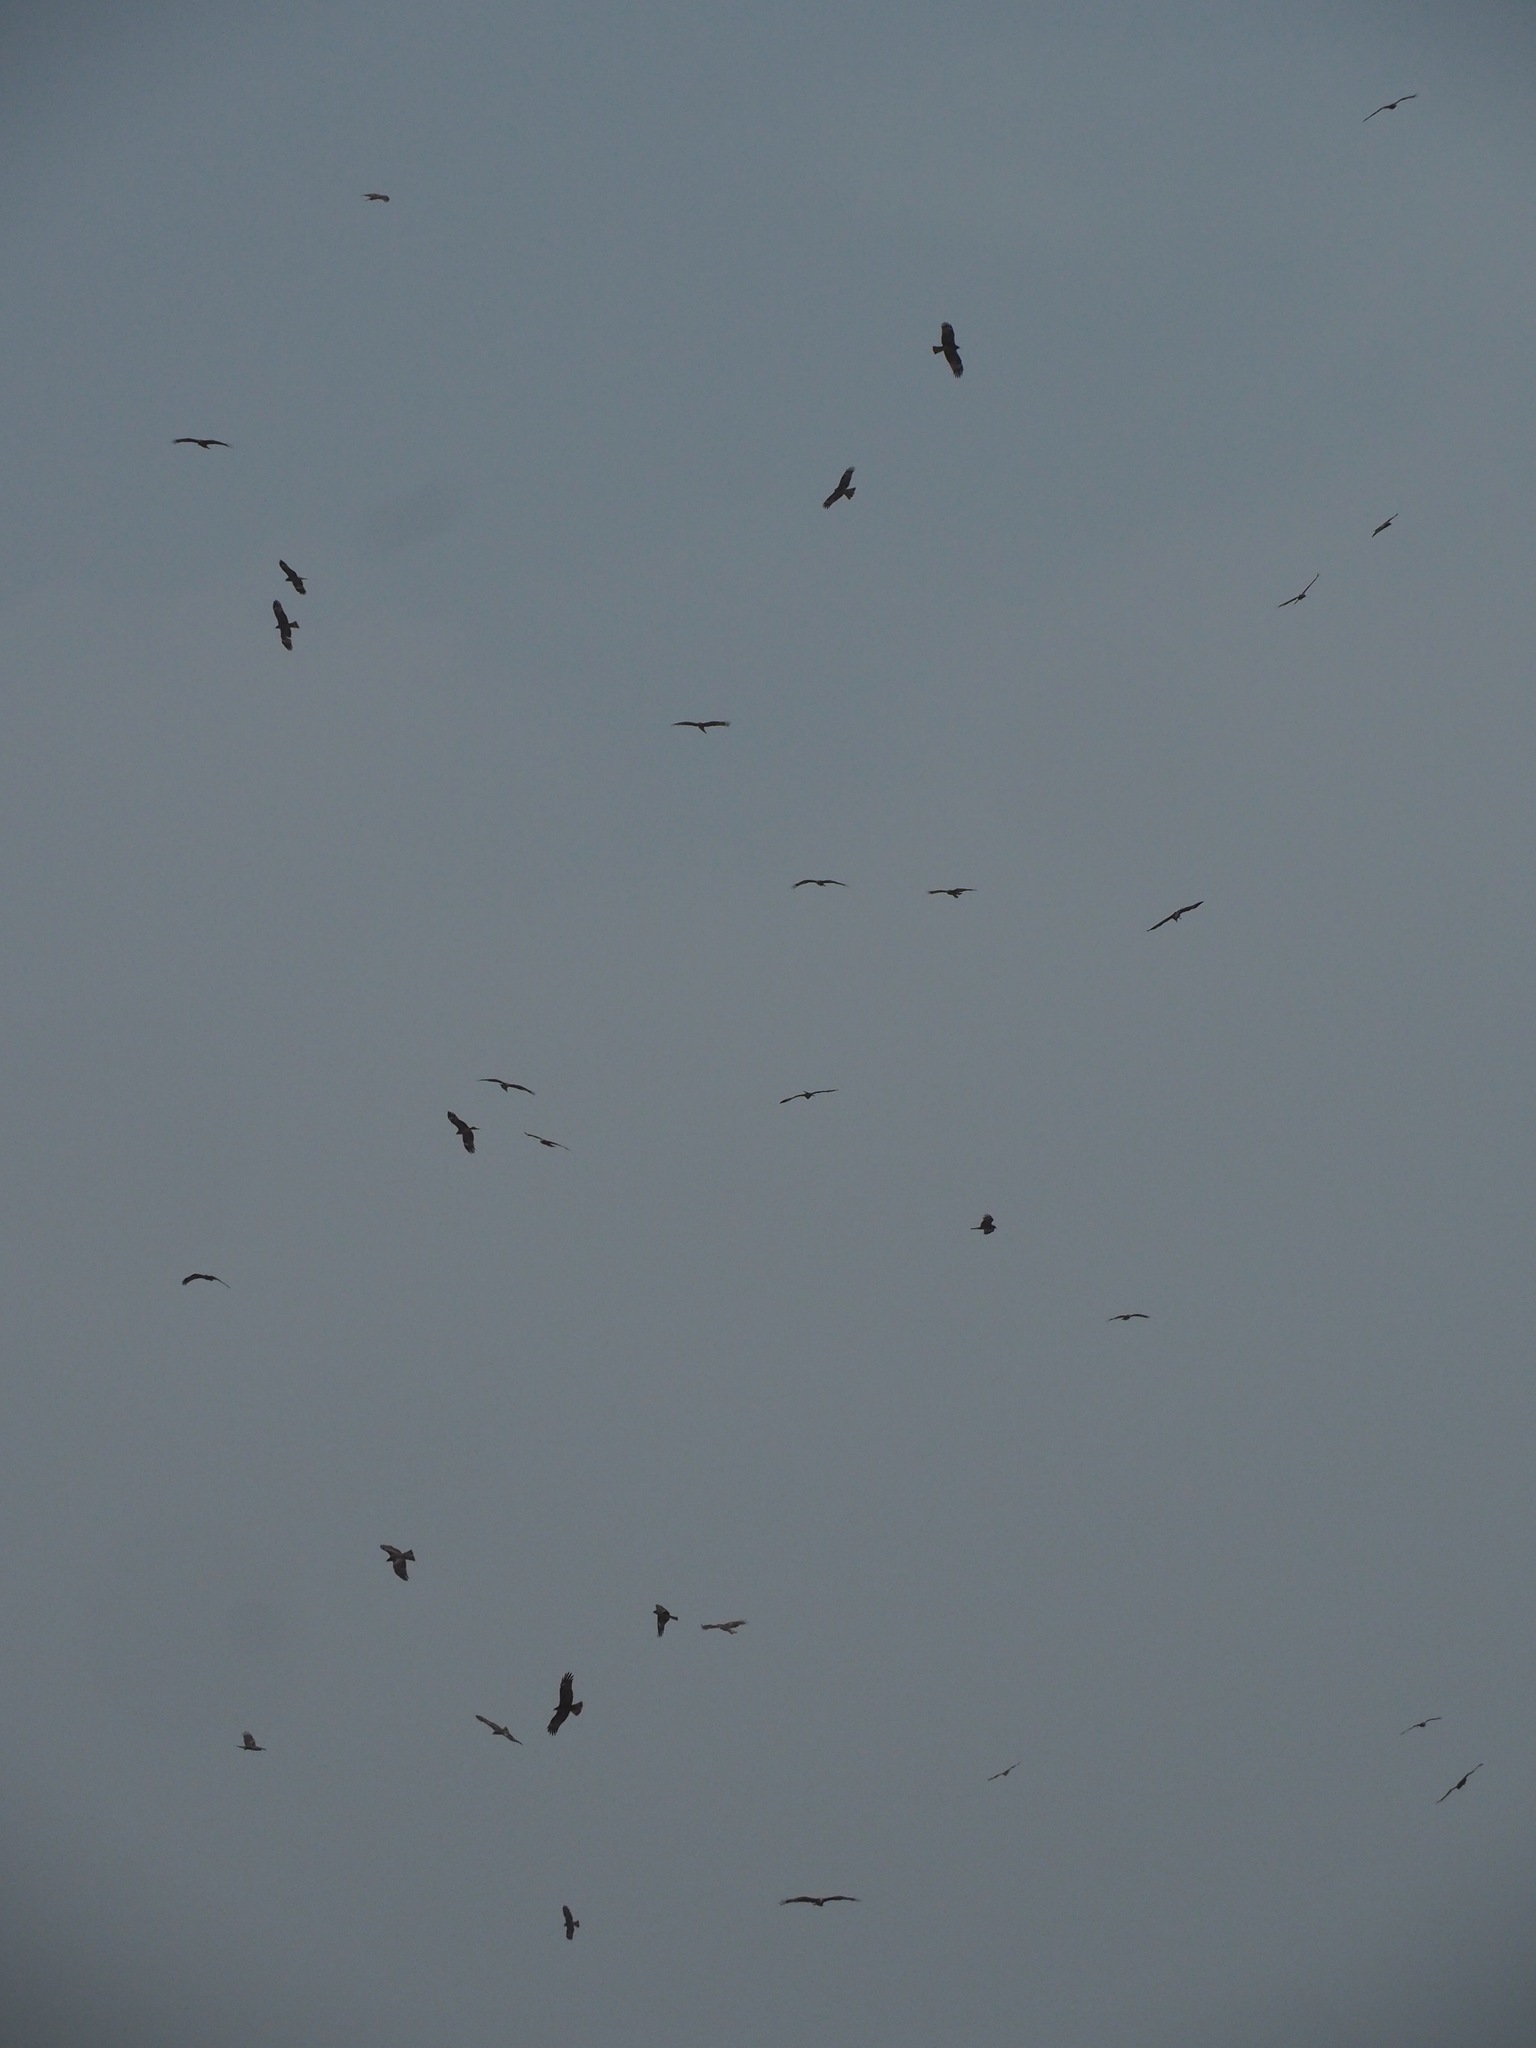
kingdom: Animalia
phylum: Chordata
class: Aves
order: Accipitriformes
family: Accipitridae
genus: Milvus
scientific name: Milvus migrans
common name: Black kite
